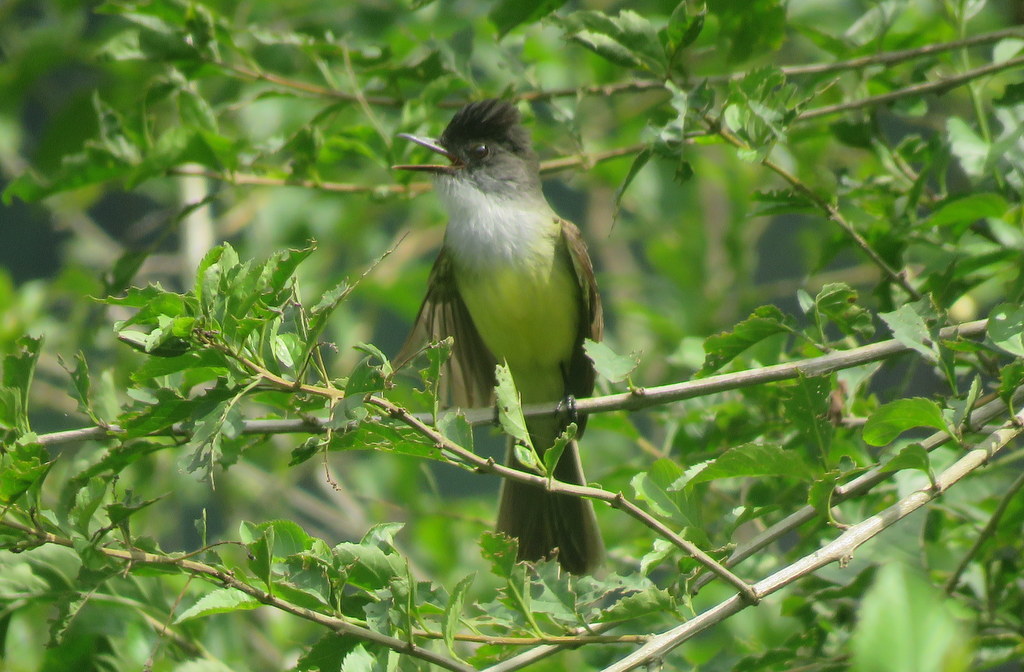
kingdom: Animalia
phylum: Chordata
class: Aves
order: Passeriformes
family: Tyrannidae
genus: Myiarchus
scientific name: Myiarchus tuberculifer
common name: Dusky-capped flycatcher
